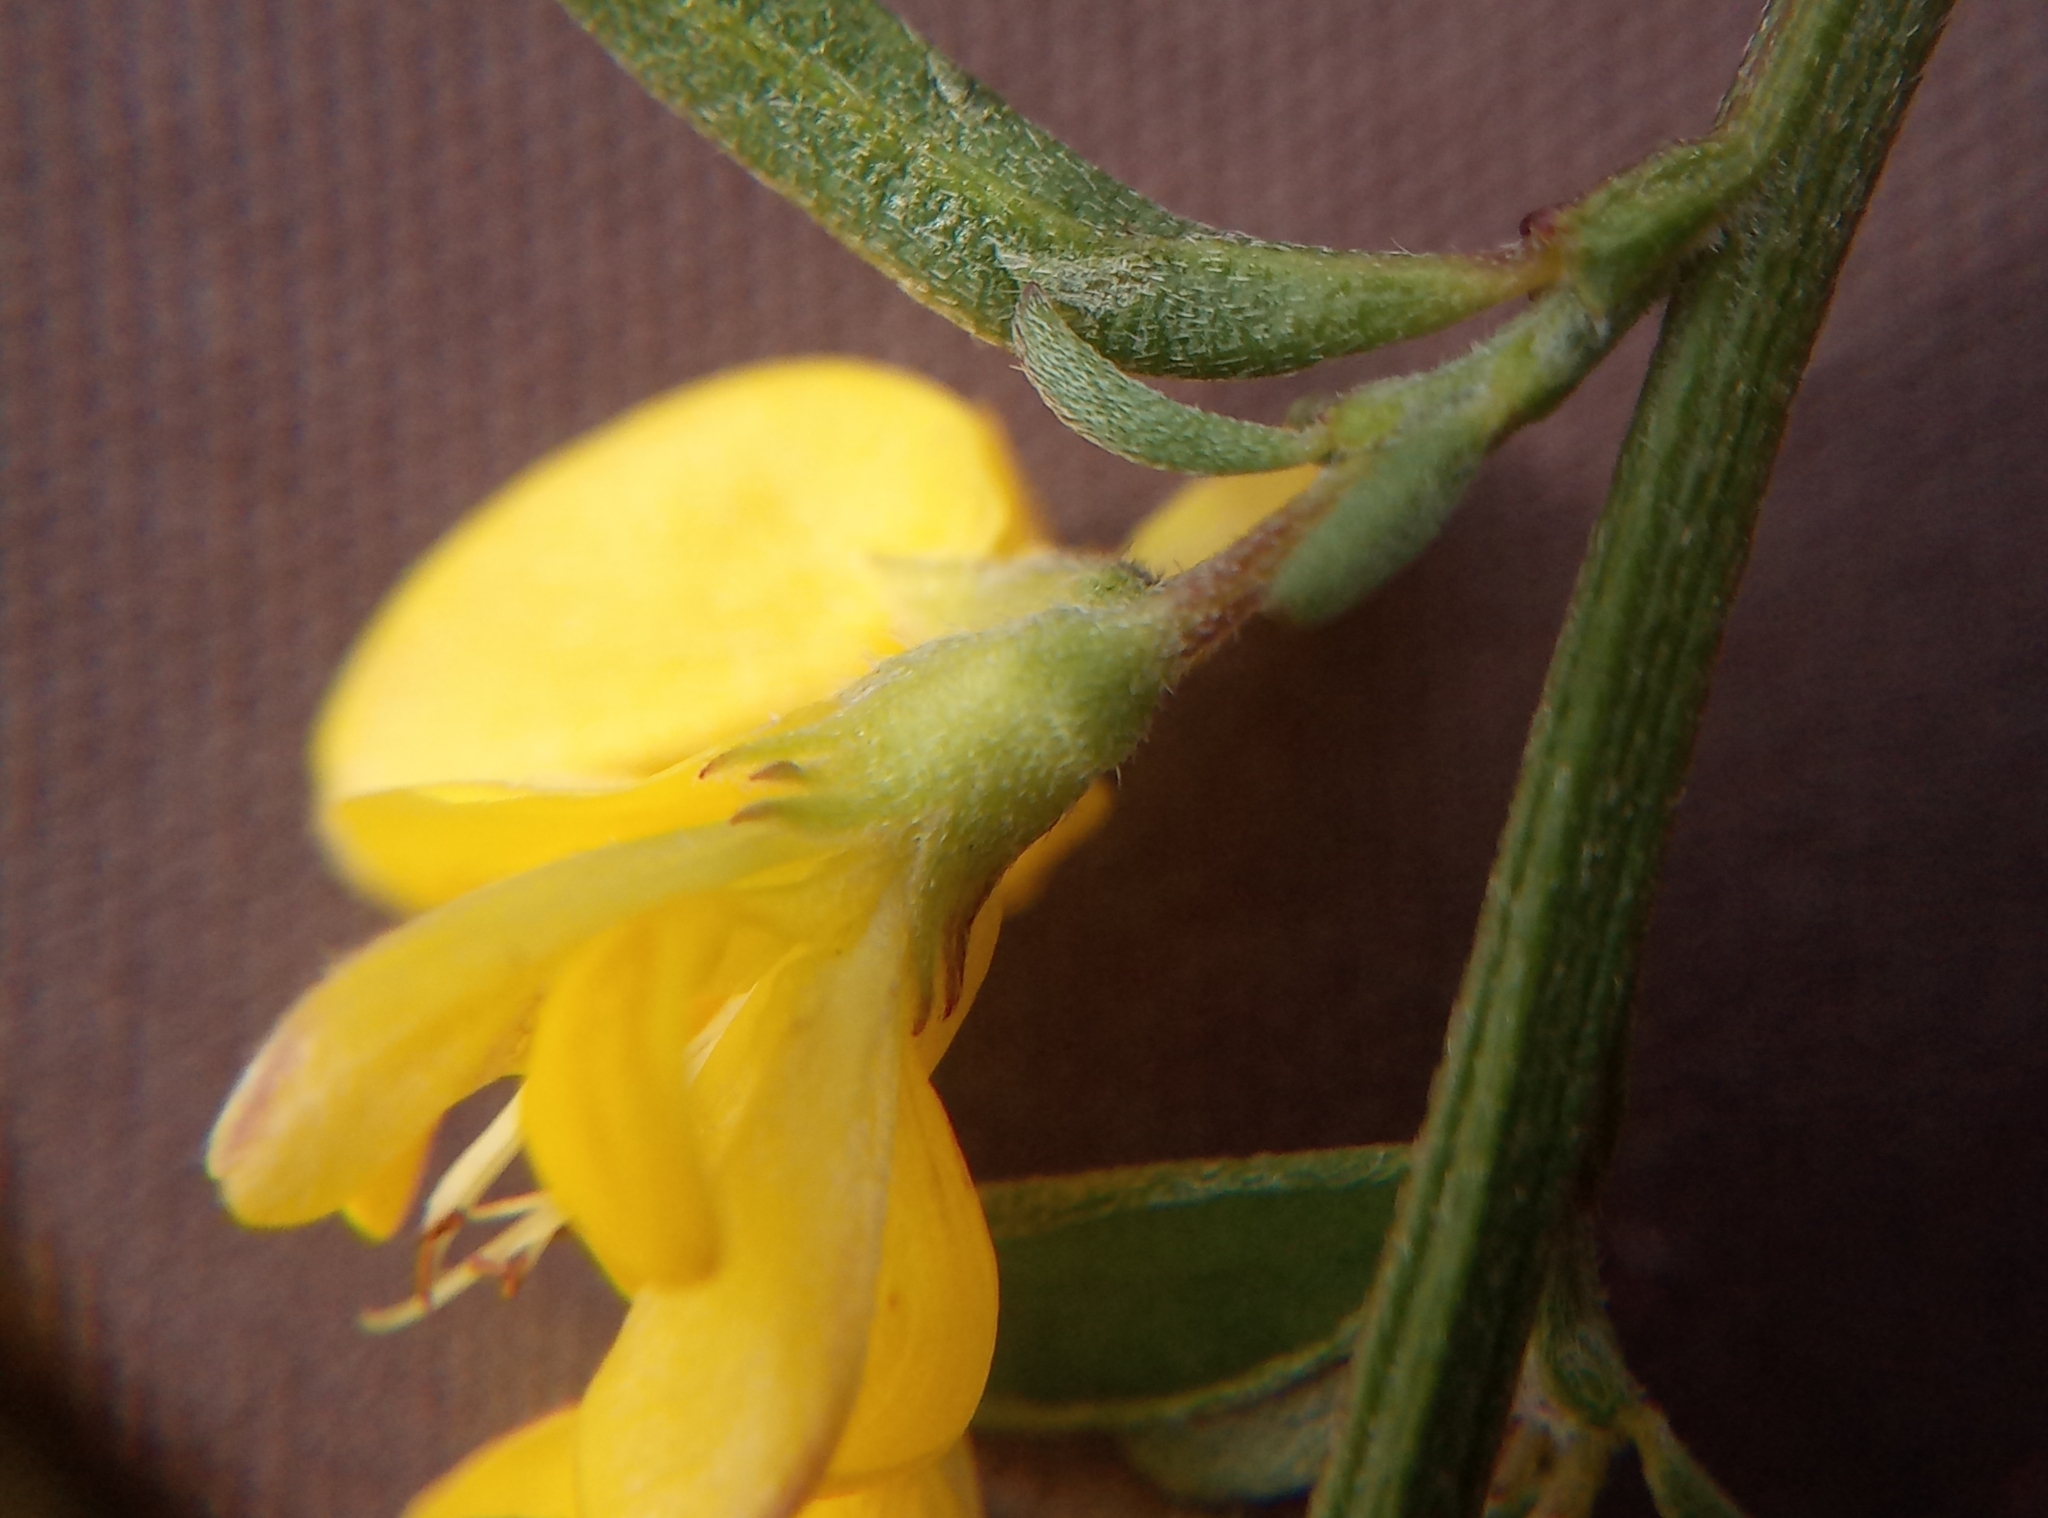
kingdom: Plantae
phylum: Tracheophyta
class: Magnoliopsida
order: Fabales
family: Fabaceae
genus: Genista
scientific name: Genista pilosa
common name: Hairy greenweed
